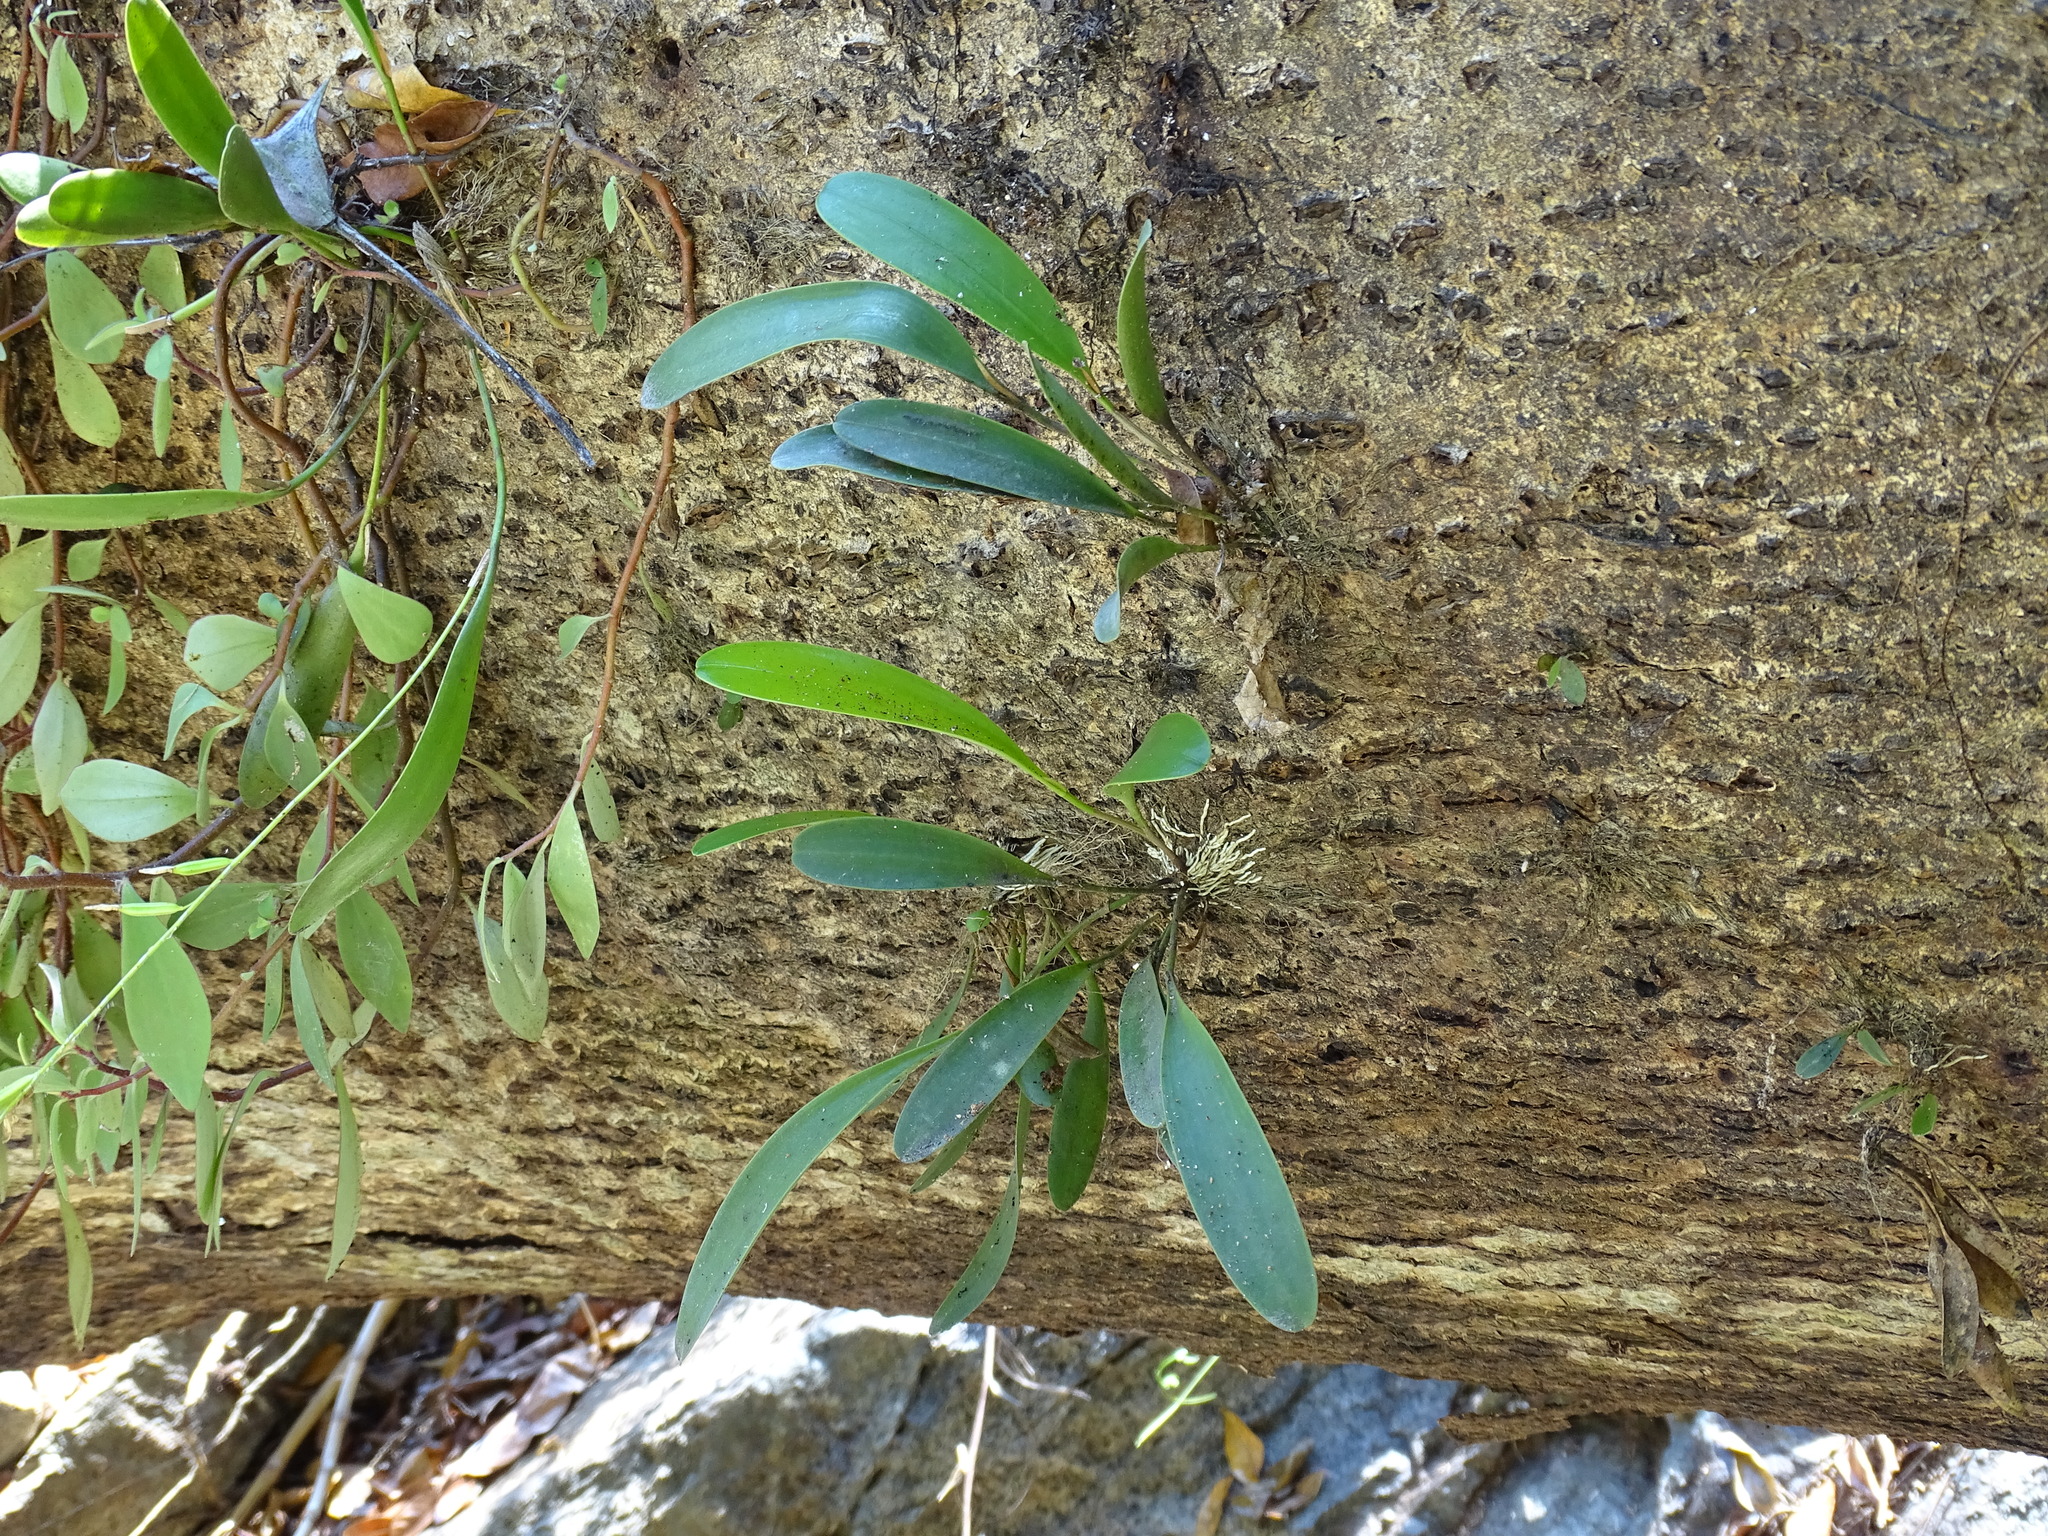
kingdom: Plantae
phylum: Tracheophyta
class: Liliopsida
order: Asparagales
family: Orchidaceae
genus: Pleurothallis
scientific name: Pleurothallis quadrifida
